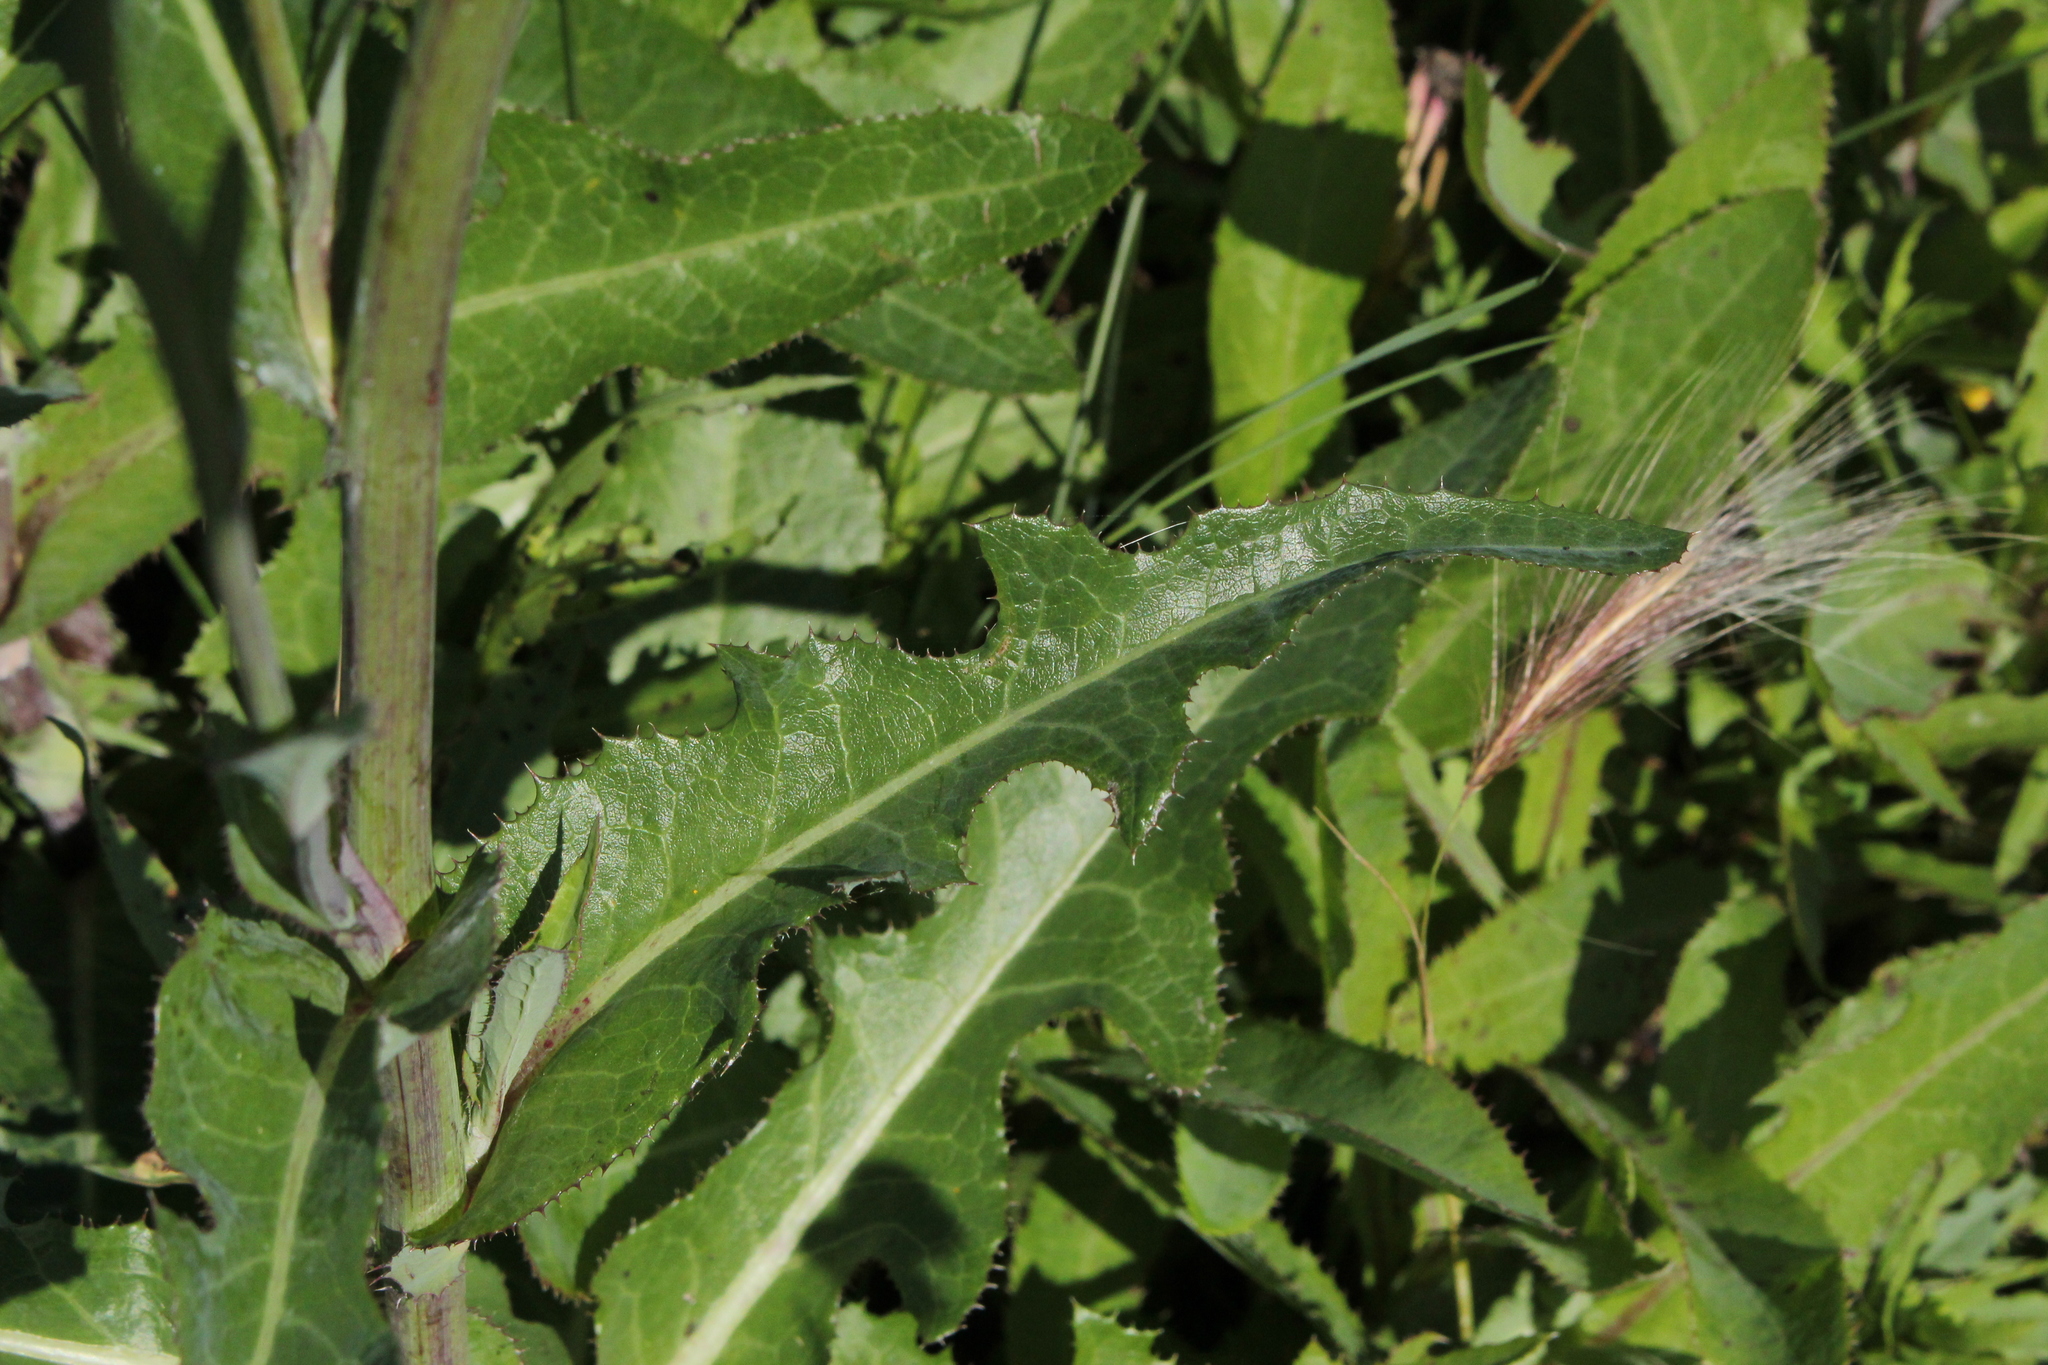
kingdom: Plantae
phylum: Tracheophyta
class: Magnoliopsida
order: Asterales
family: Asteraceae
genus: Sonchus
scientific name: Sonchus arvensis
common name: Perennial sow-thistle
